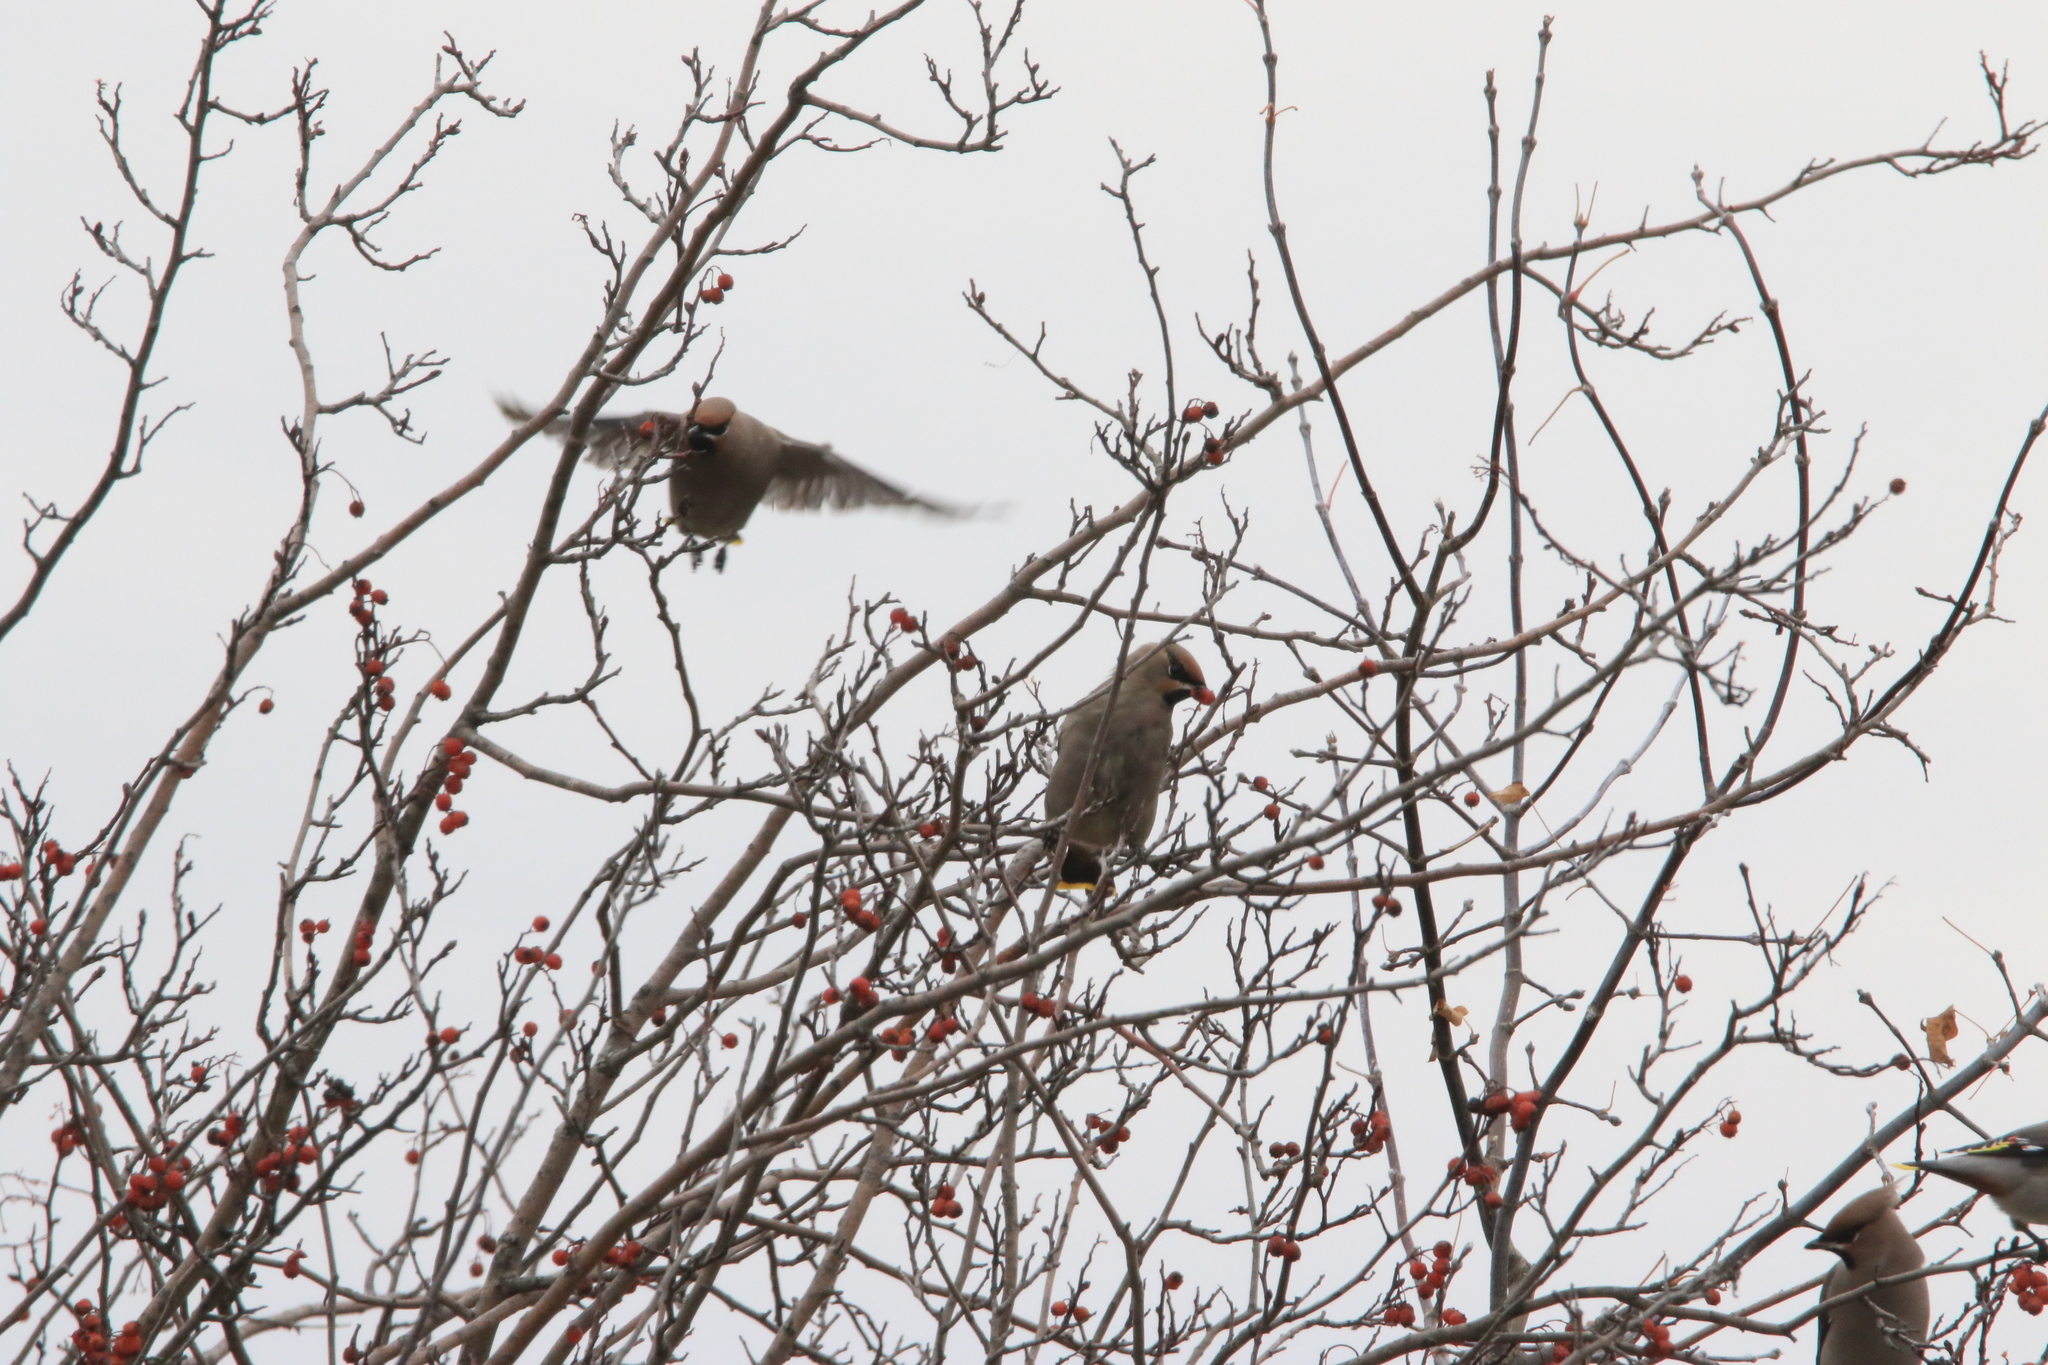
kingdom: Animalia
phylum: Chordata
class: Aves
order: Passeriformes
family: Bombycillidae
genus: Bombycilla
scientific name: Bombycilla garrulus
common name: Bohemian waxwing
